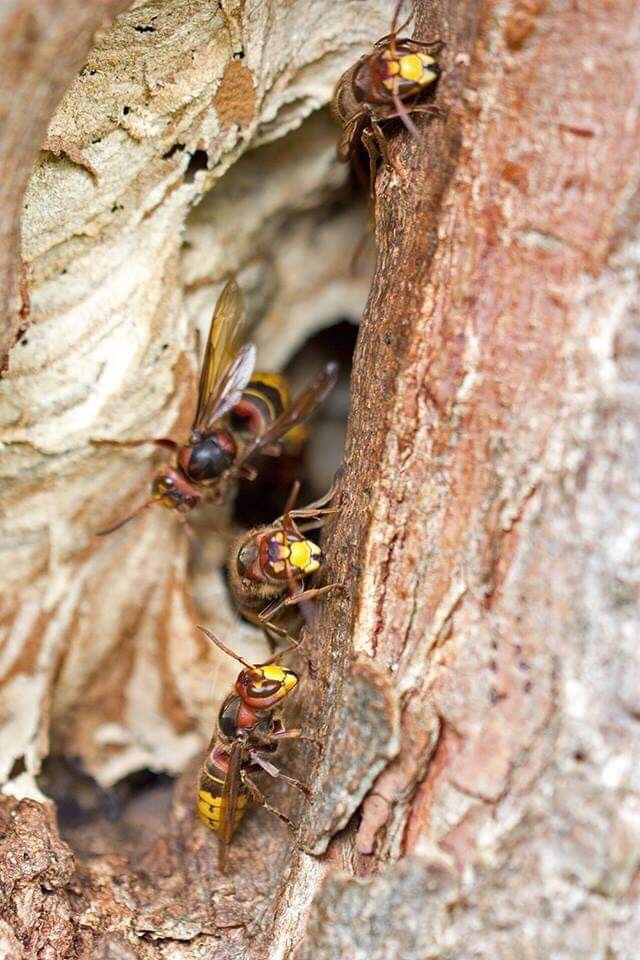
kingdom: Animalia
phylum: Arthropoda
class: Insecta
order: Hymenoptera
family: Vespidae
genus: Vespa
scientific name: Vespa crabro
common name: Hornet
